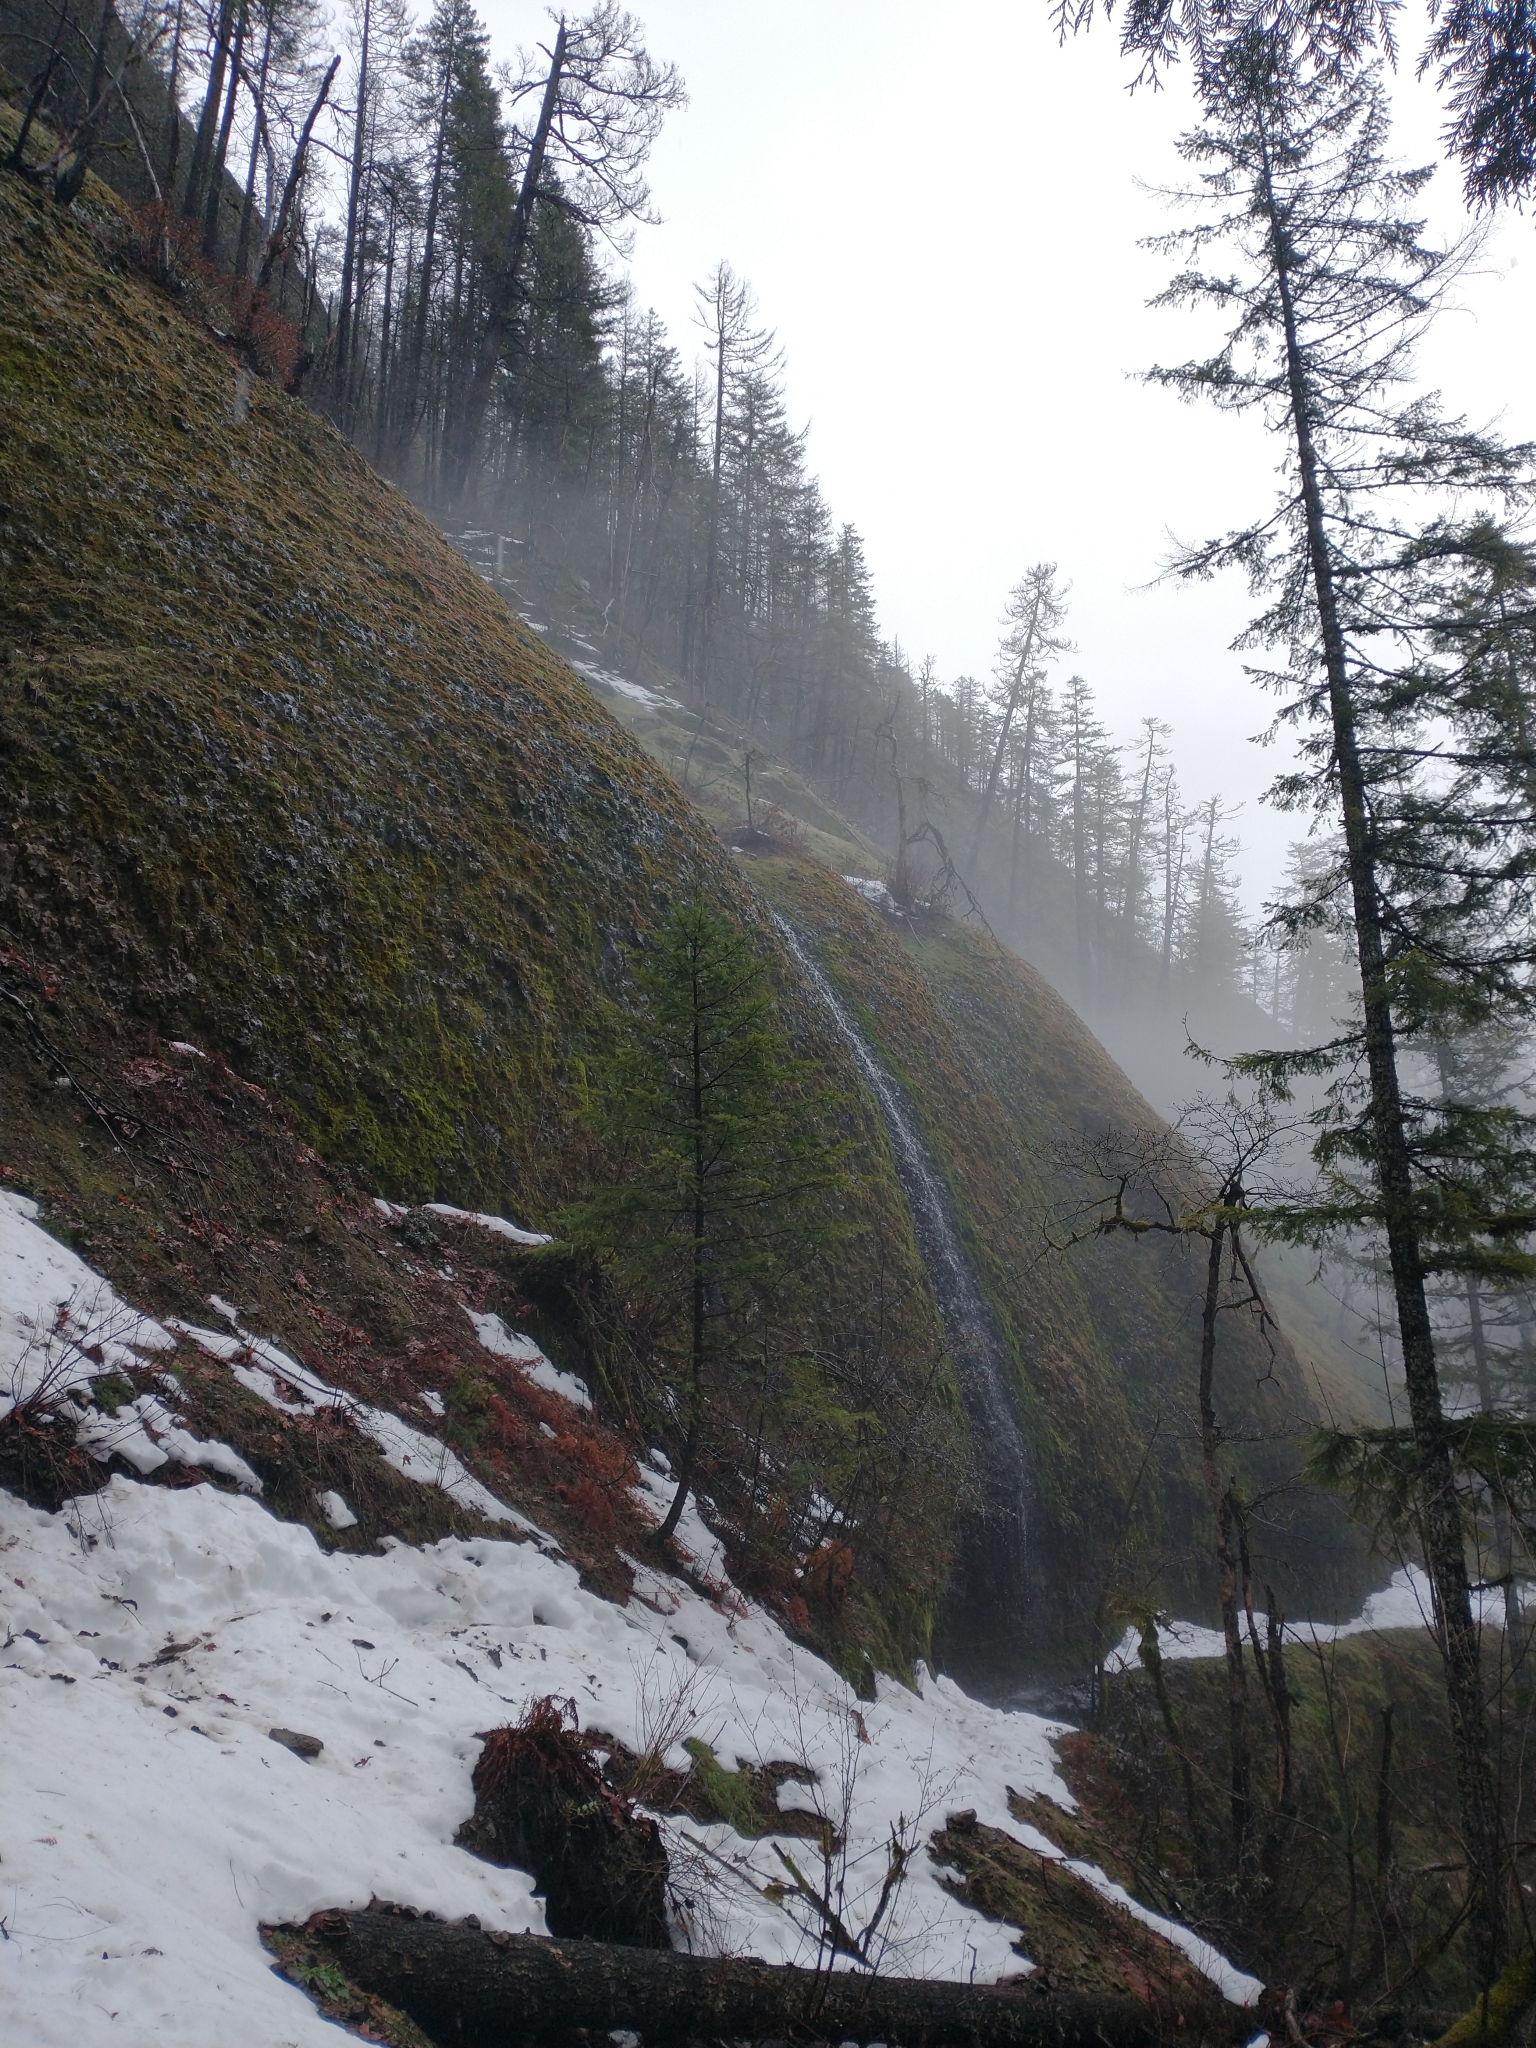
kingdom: Plantae
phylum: Tracheophyta
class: Pinopsida
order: Pinales
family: Pinaceae
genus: Pseudotsuga
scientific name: Pseudotsuga menziesii
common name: Douglas fir
